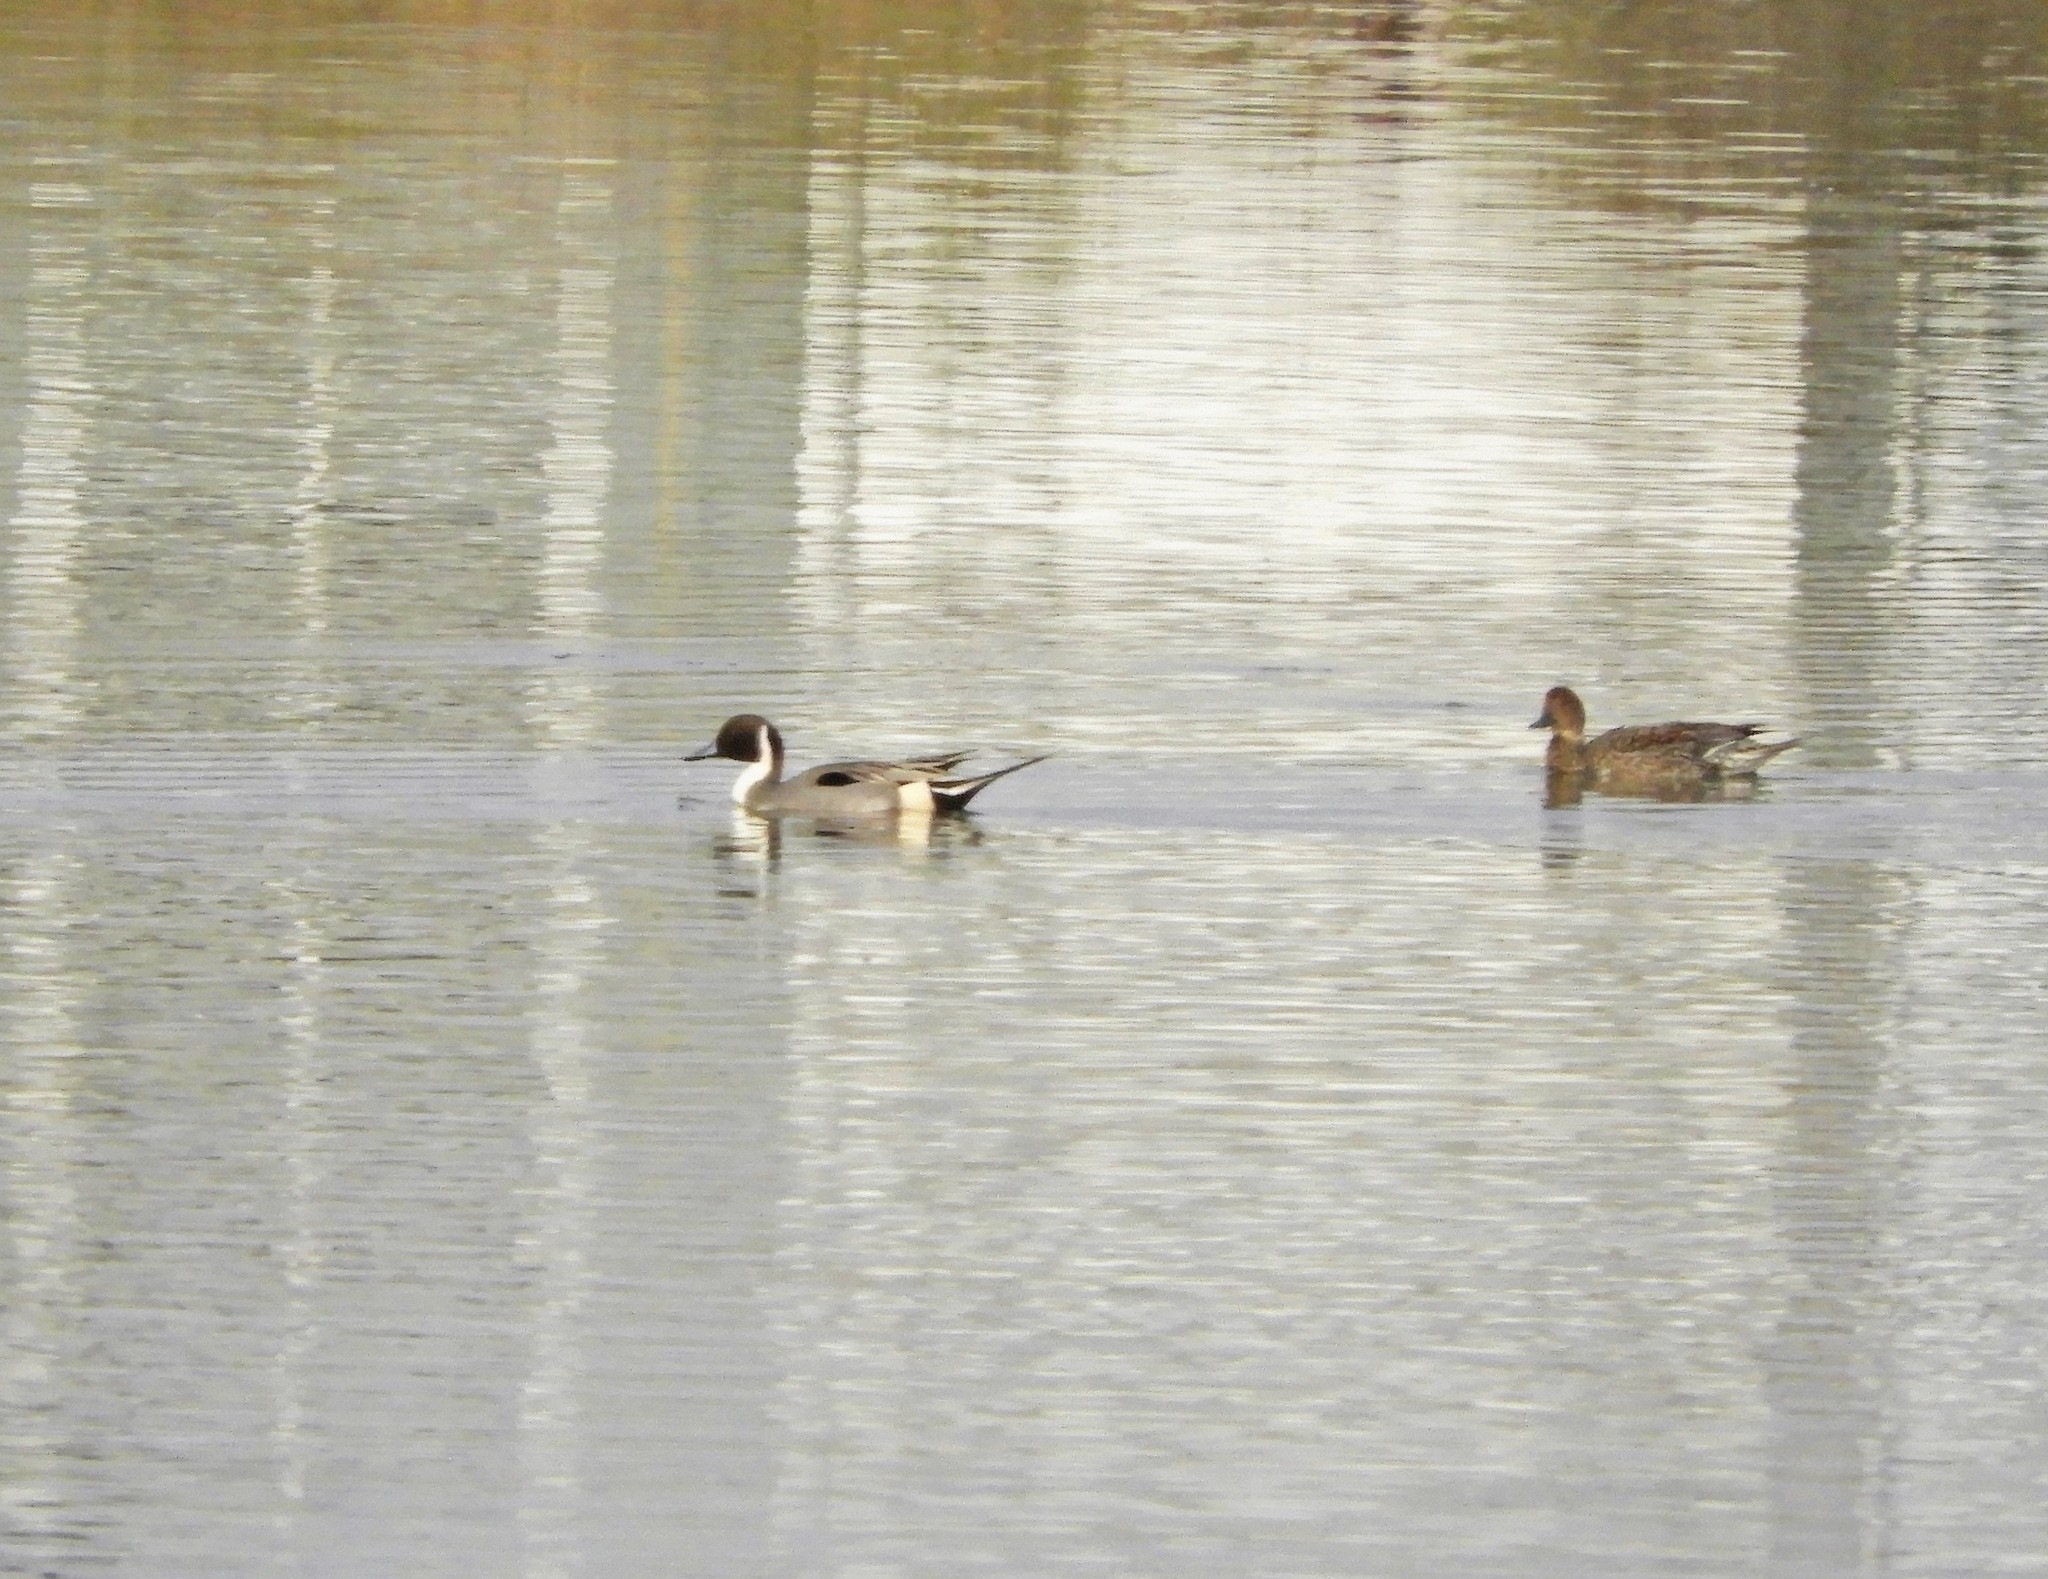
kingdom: Animalia
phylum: Chordata
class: Aves
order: Anseriformes
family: Anatidae
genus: Anas
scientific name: Anas acuta
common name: Northern pintail
